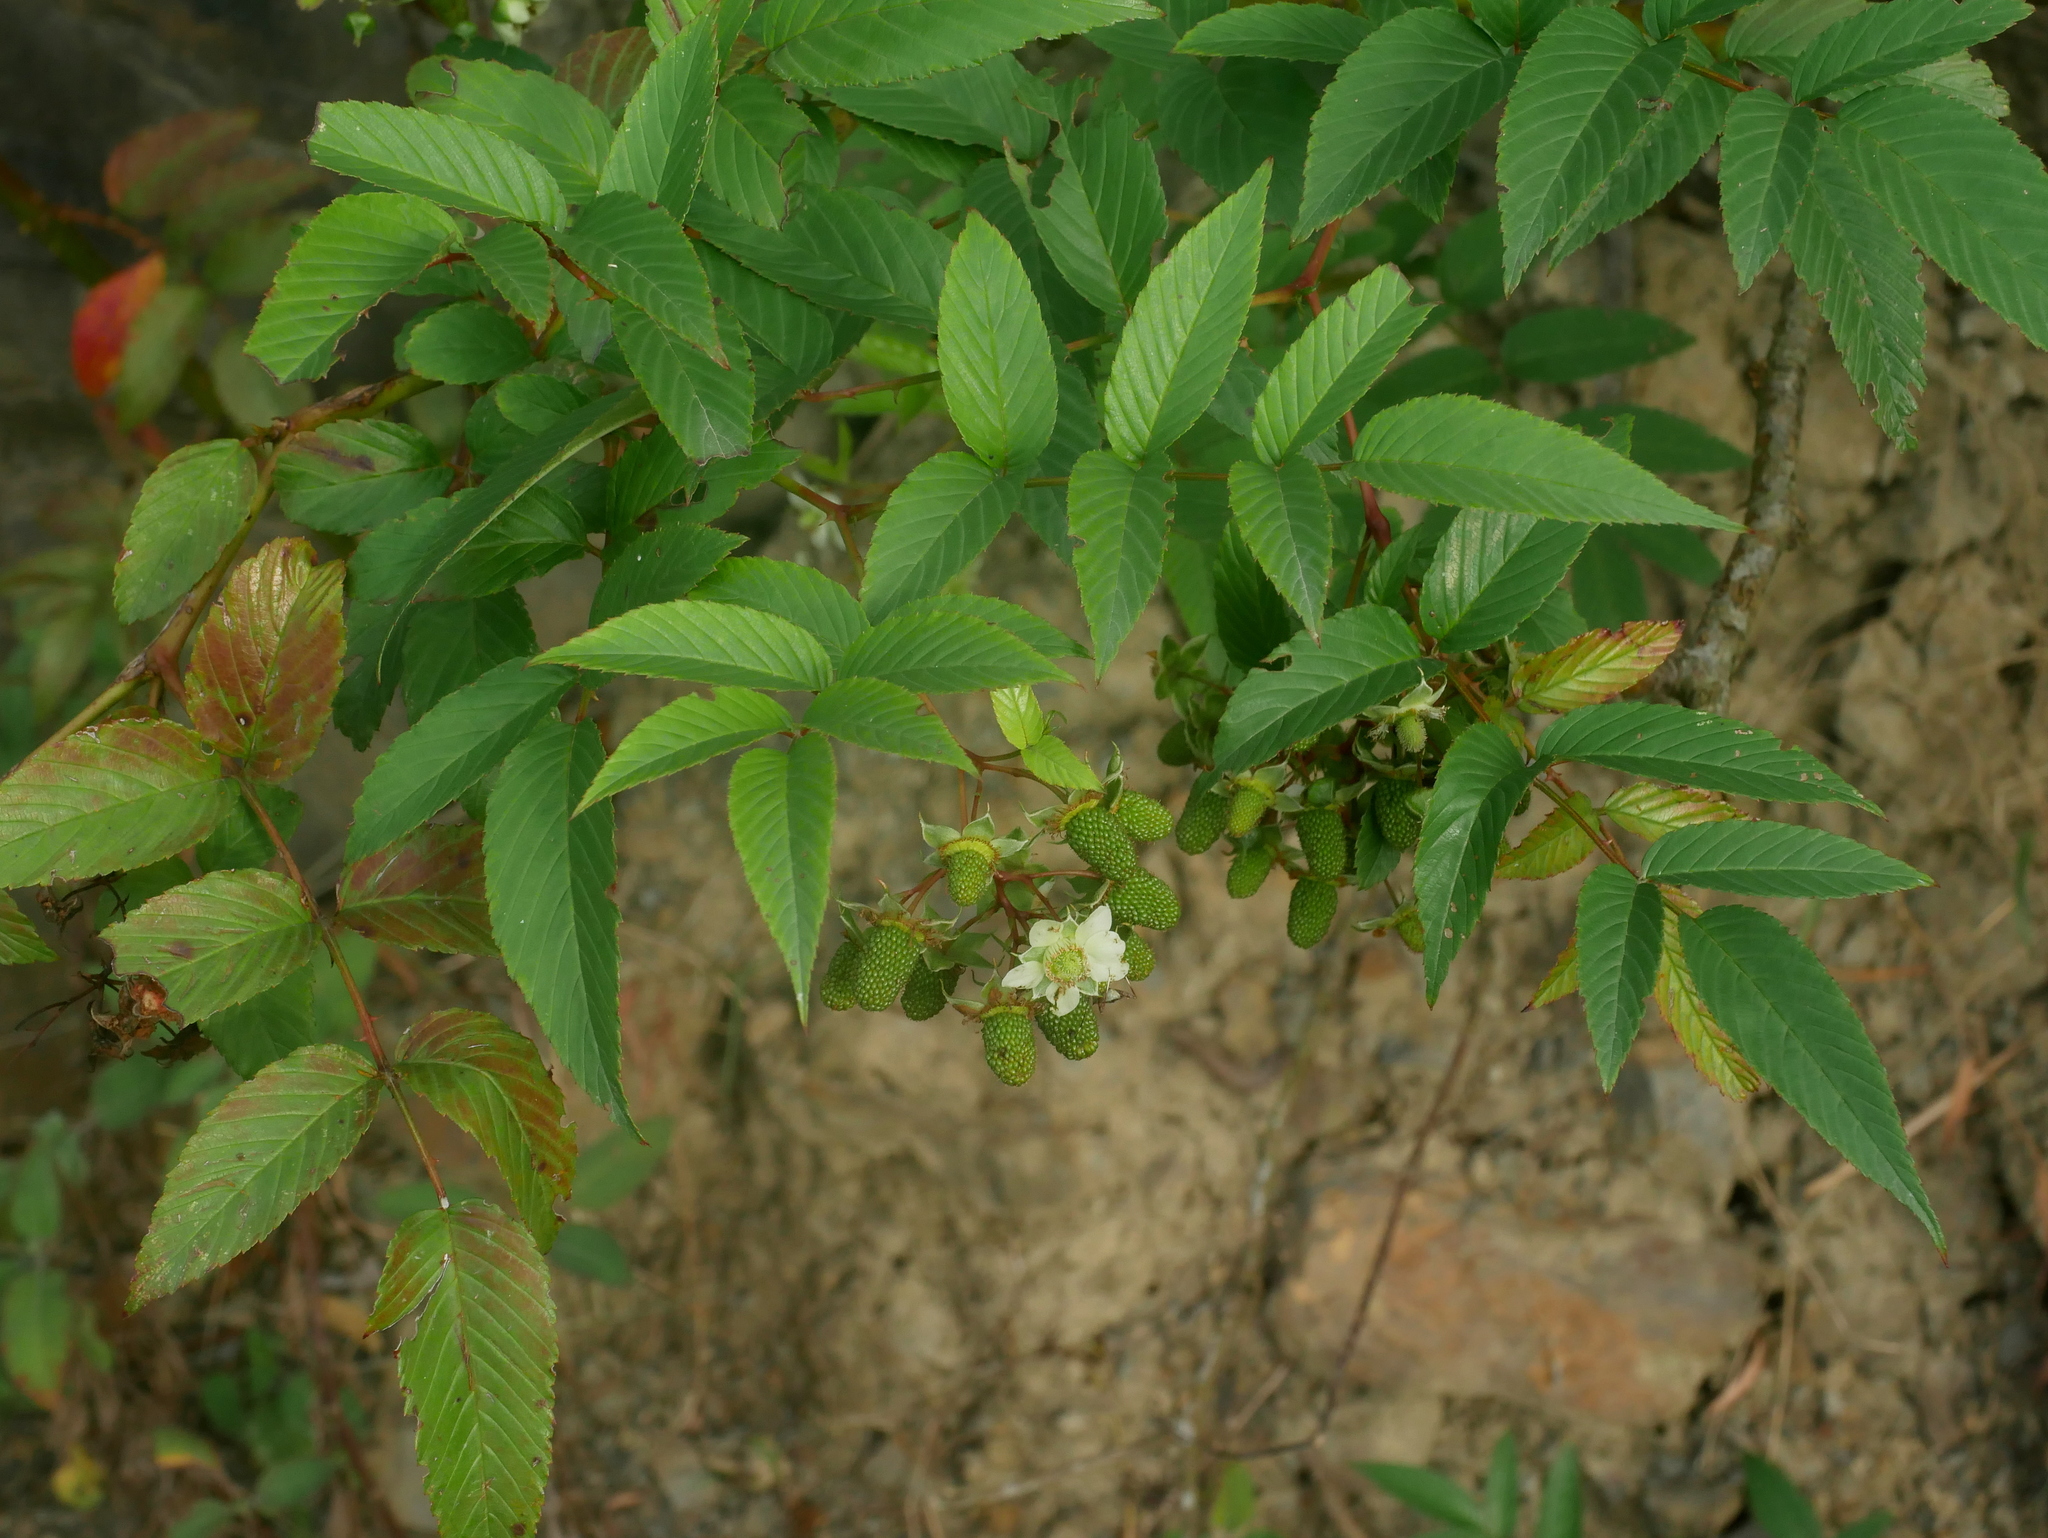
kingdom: Plantae
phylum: Tracheophyta
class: Magnoliopsida
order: Rosales
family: Rosaceae
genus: Rubus
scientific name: Rubus fraxinifolius
